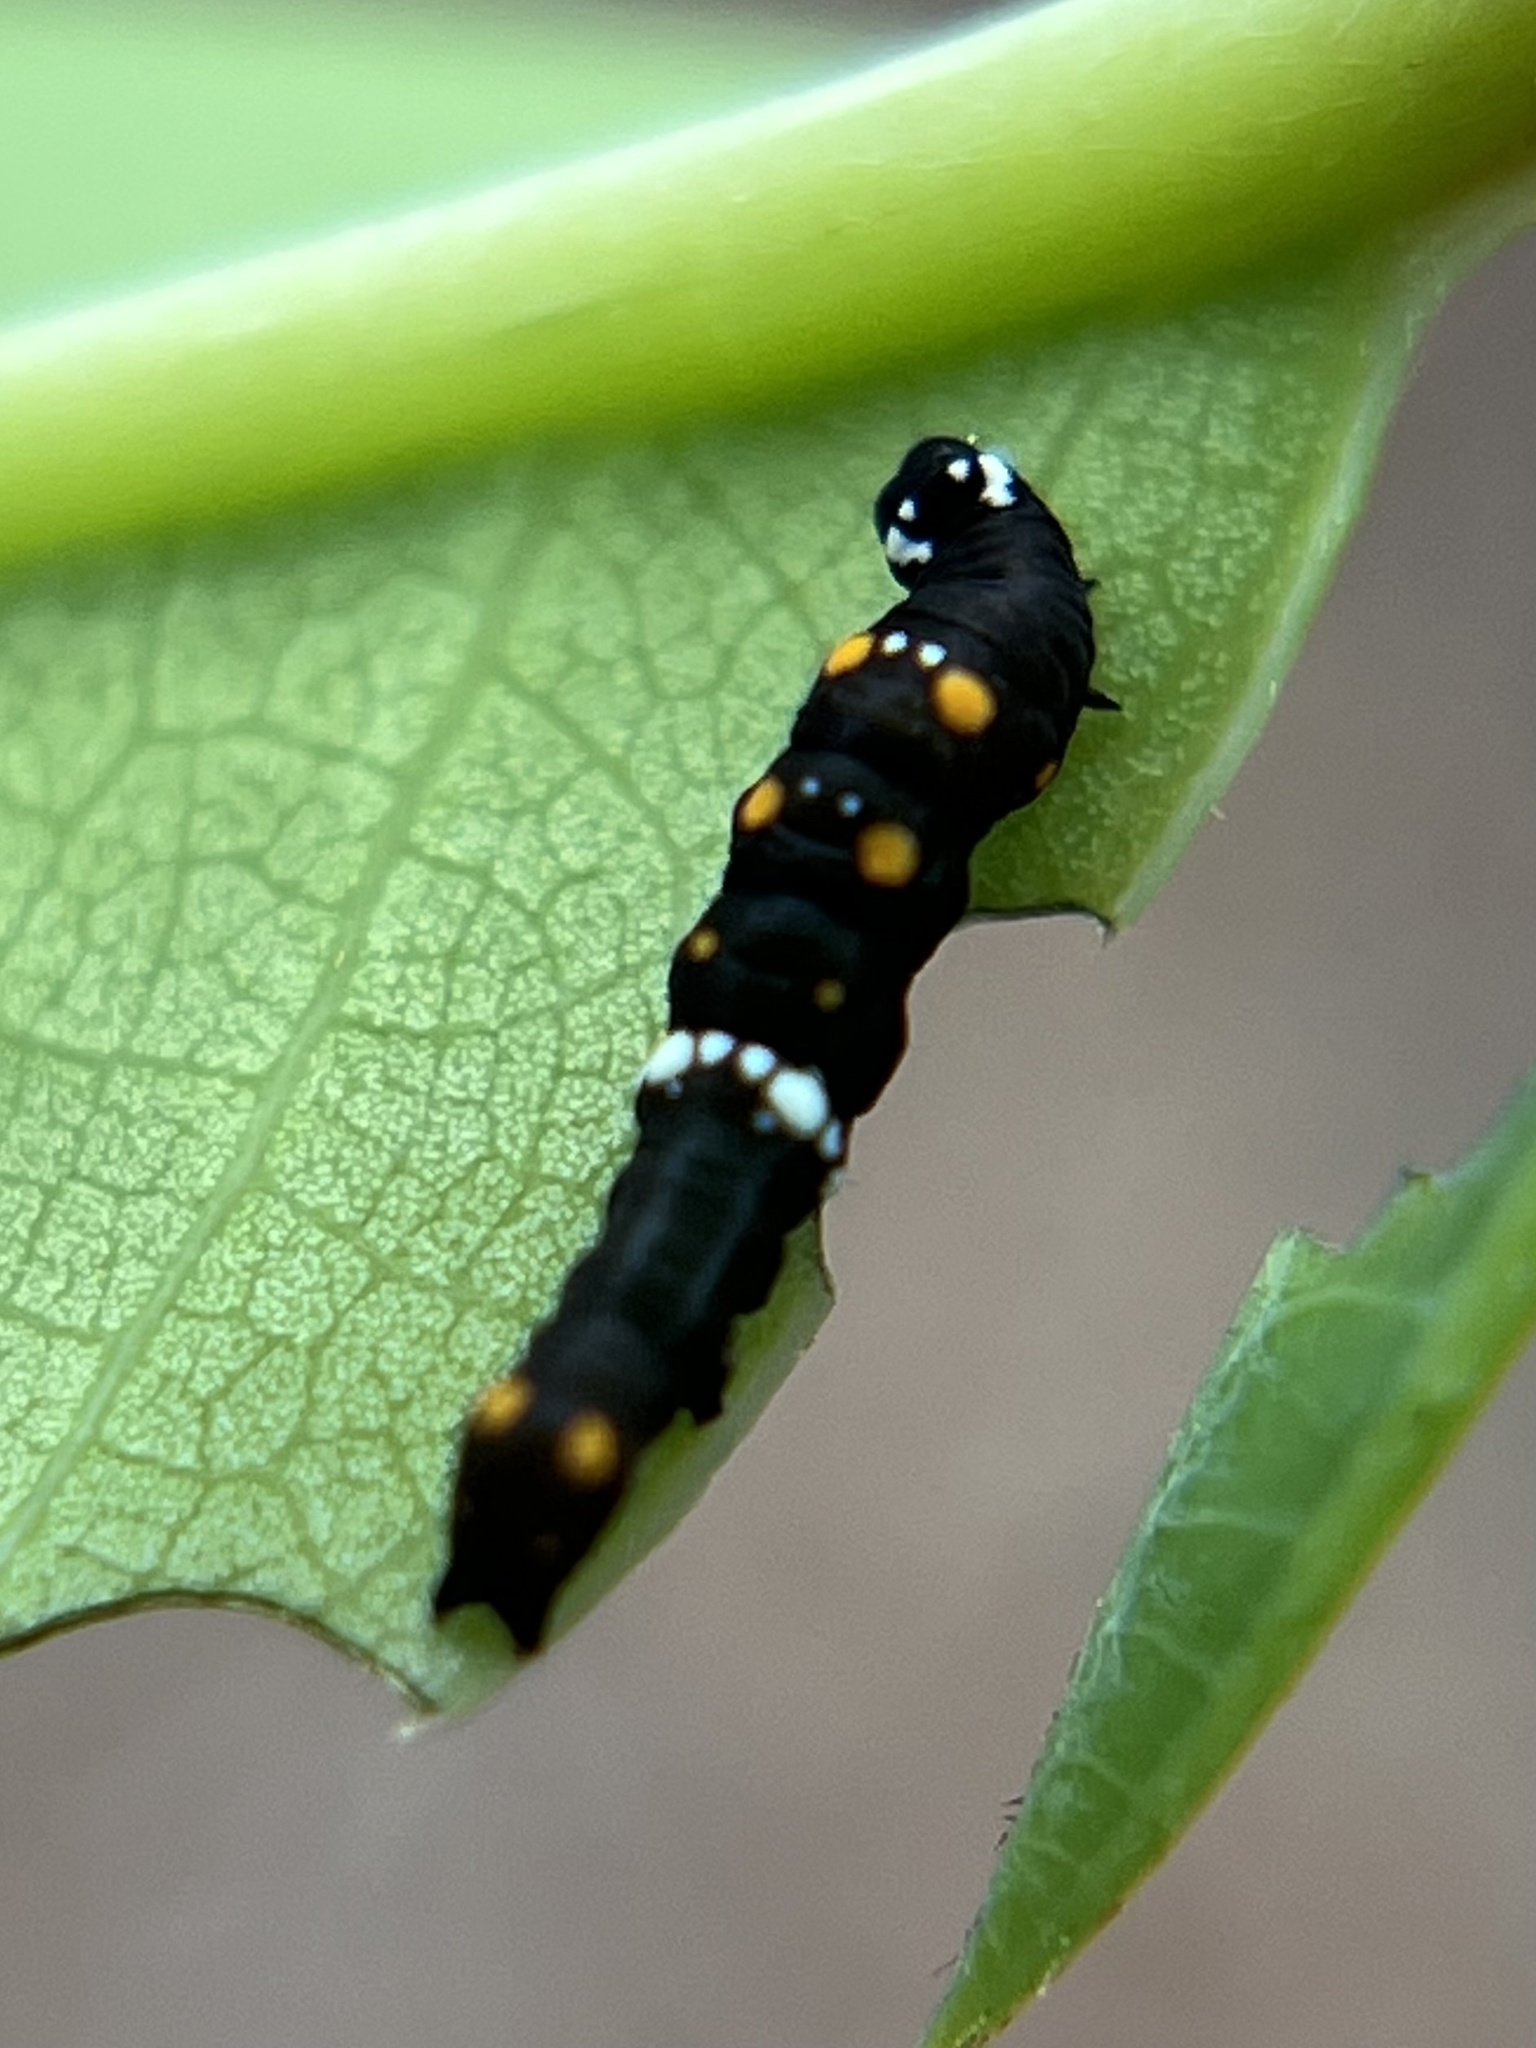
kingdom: Animalia
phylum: Arthropoda
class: Insecta
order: Lepidoptera
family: Erebidae
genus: Gonodonta
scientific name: Gonodonta nutrix
